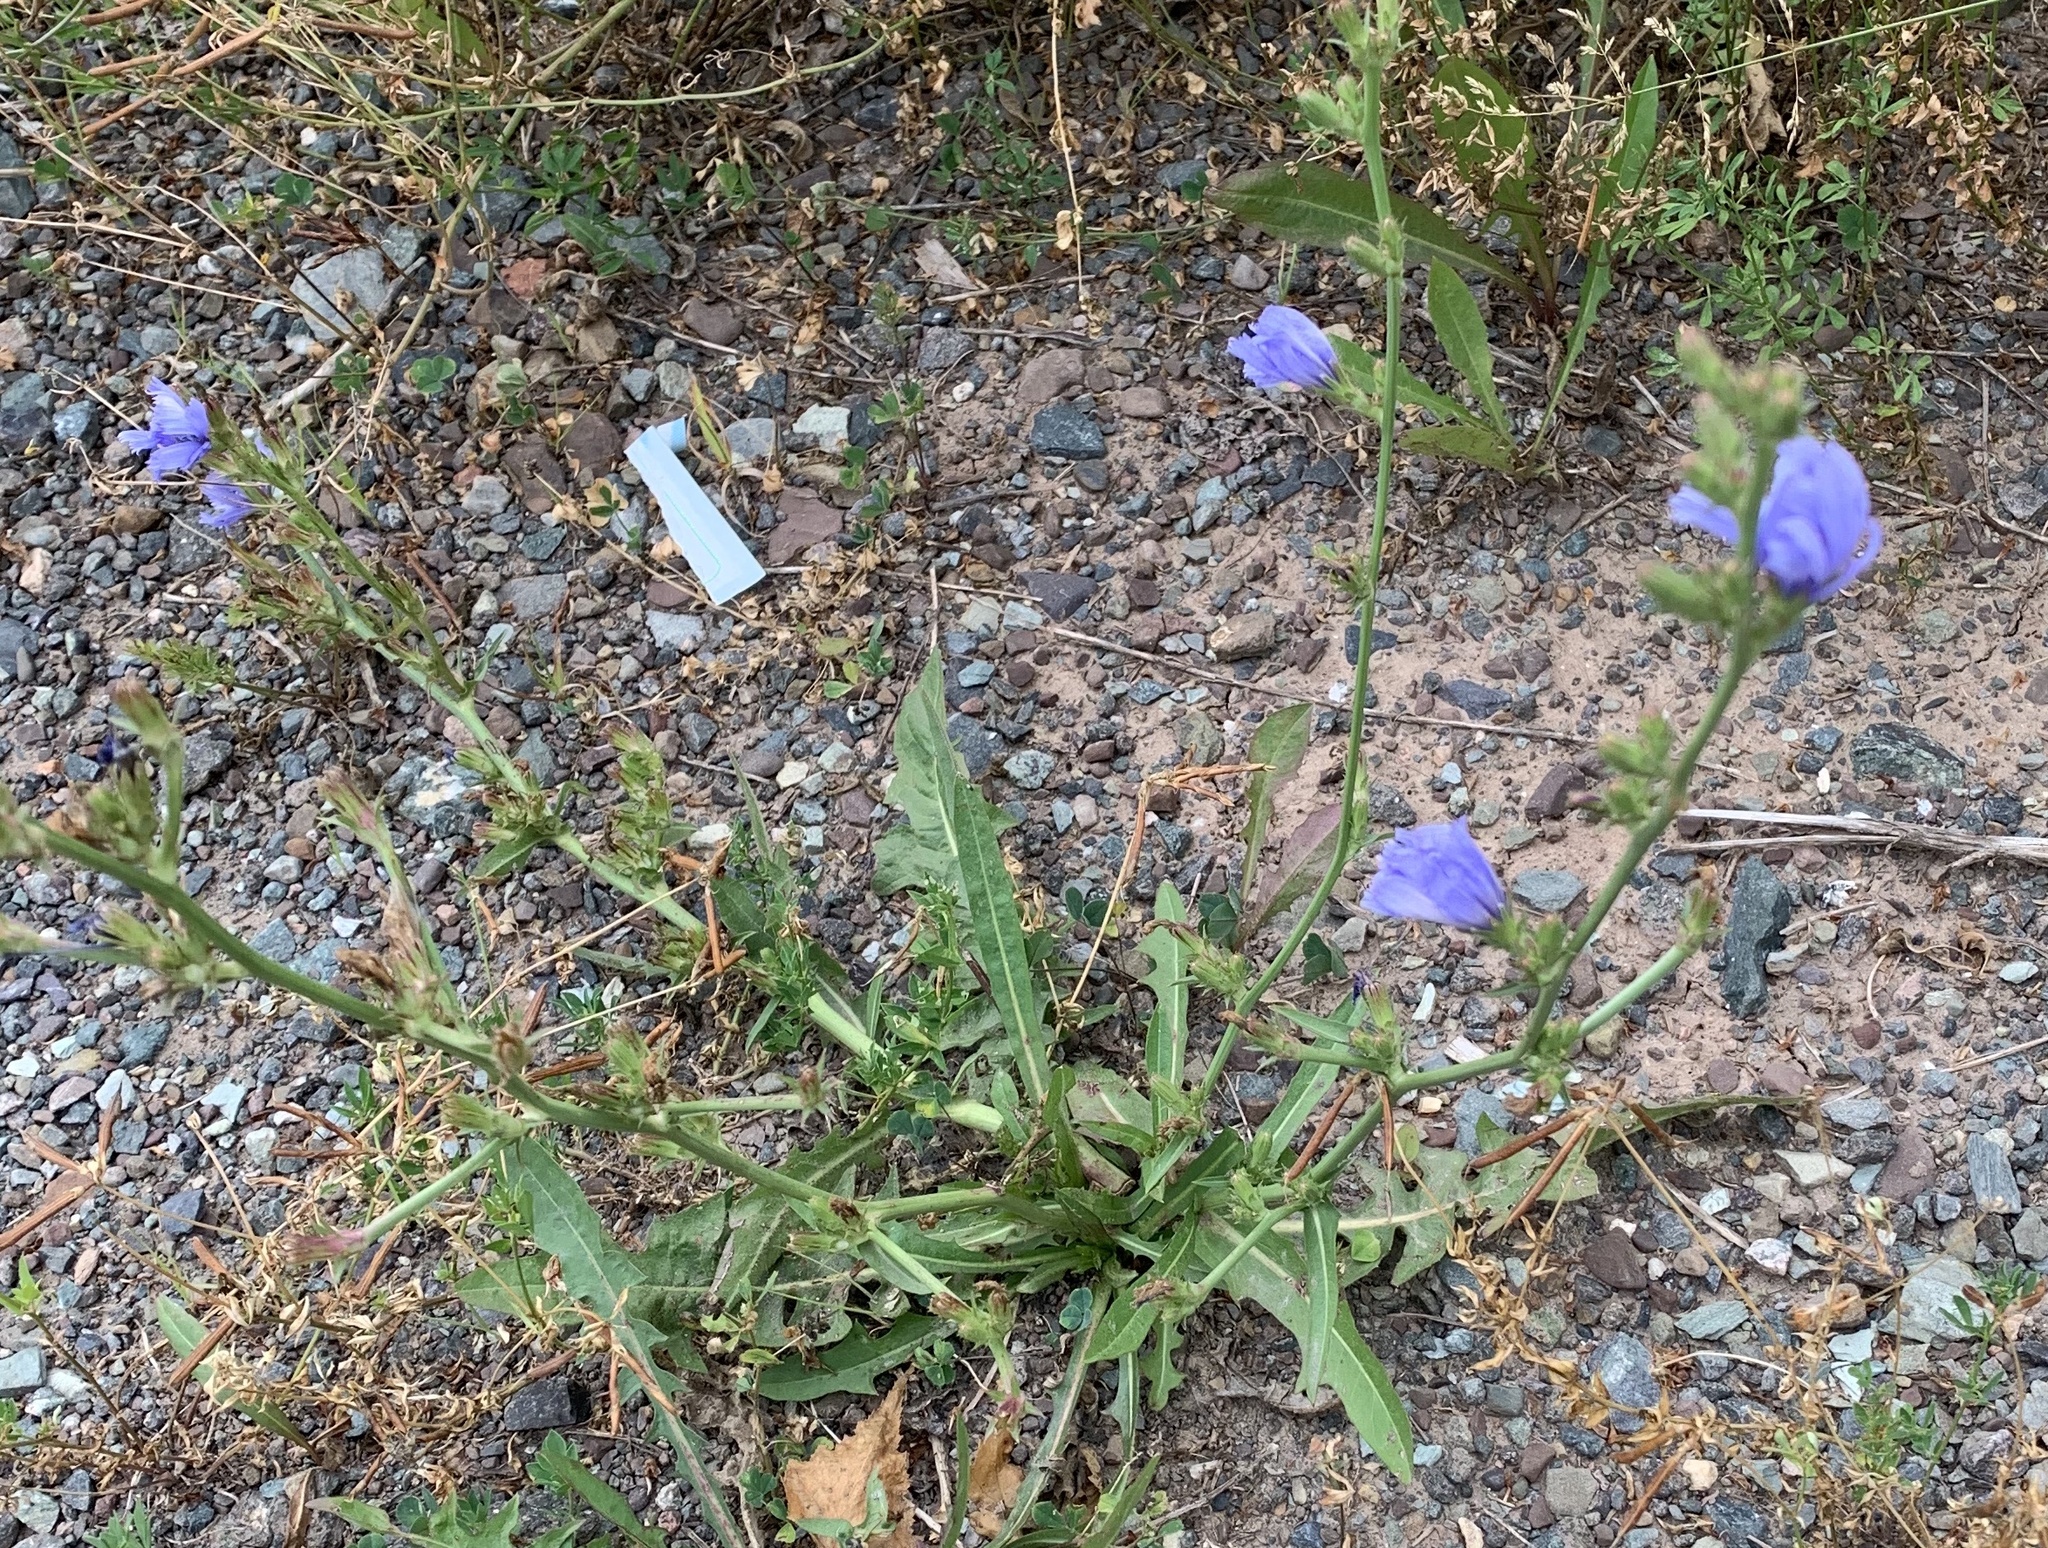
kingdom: Plantae
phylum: Tracheophyta
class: Magnoliopsida
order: Asterales
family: Asteraceae
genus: Cichorium
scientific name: Cichorium intybus
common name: Chicory
